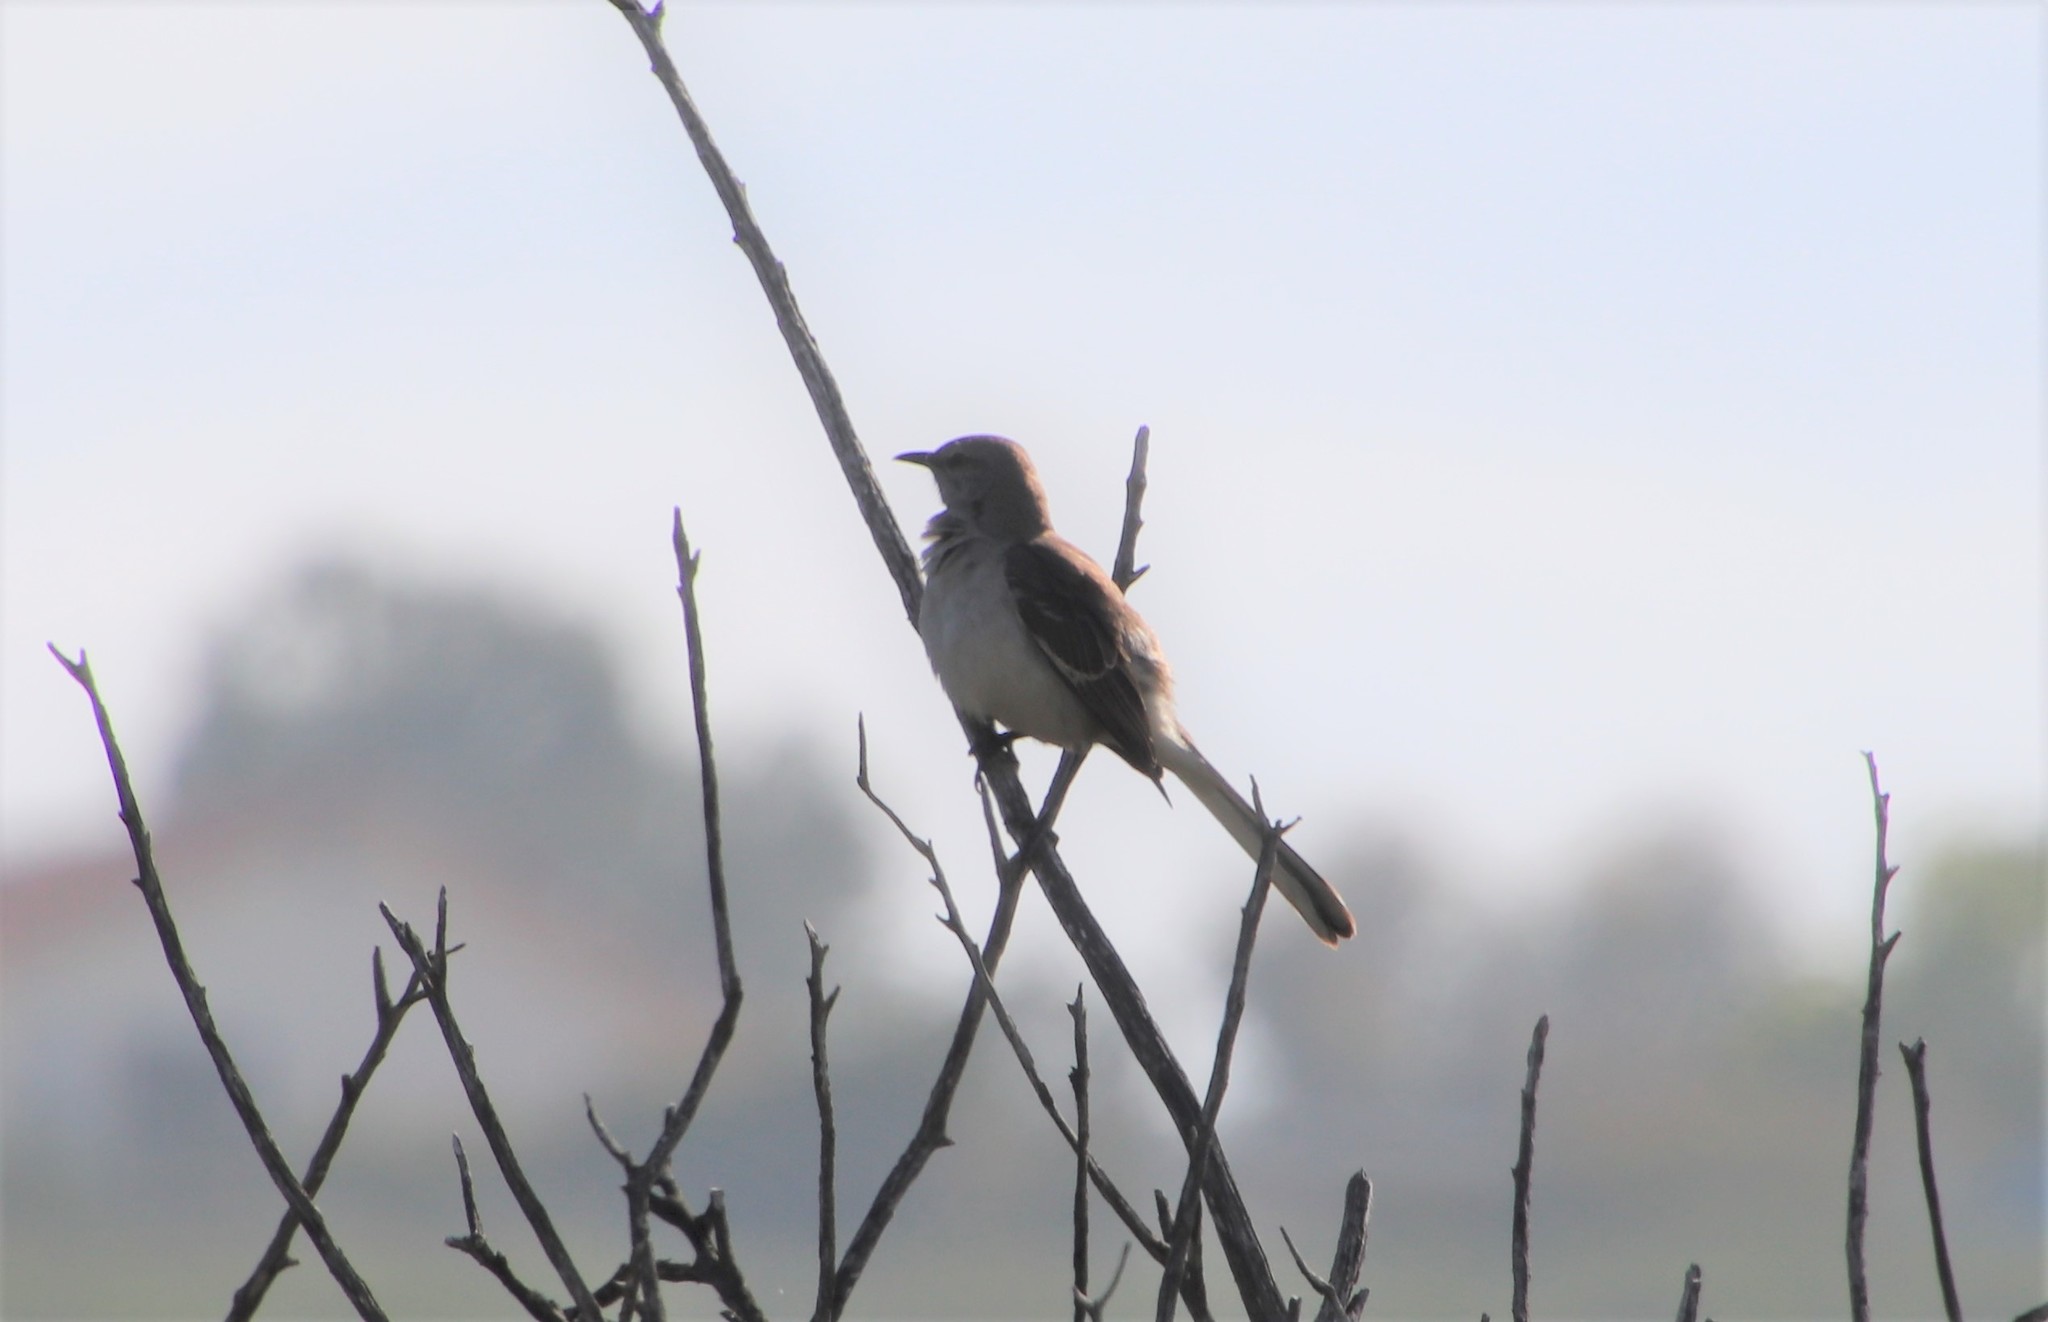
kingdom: Animalia
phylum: Chordata
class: Aves
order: Passeriformes
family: Mimidae
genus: Mimus
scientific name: Mimus polyglottos
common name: Northern mockingbird
